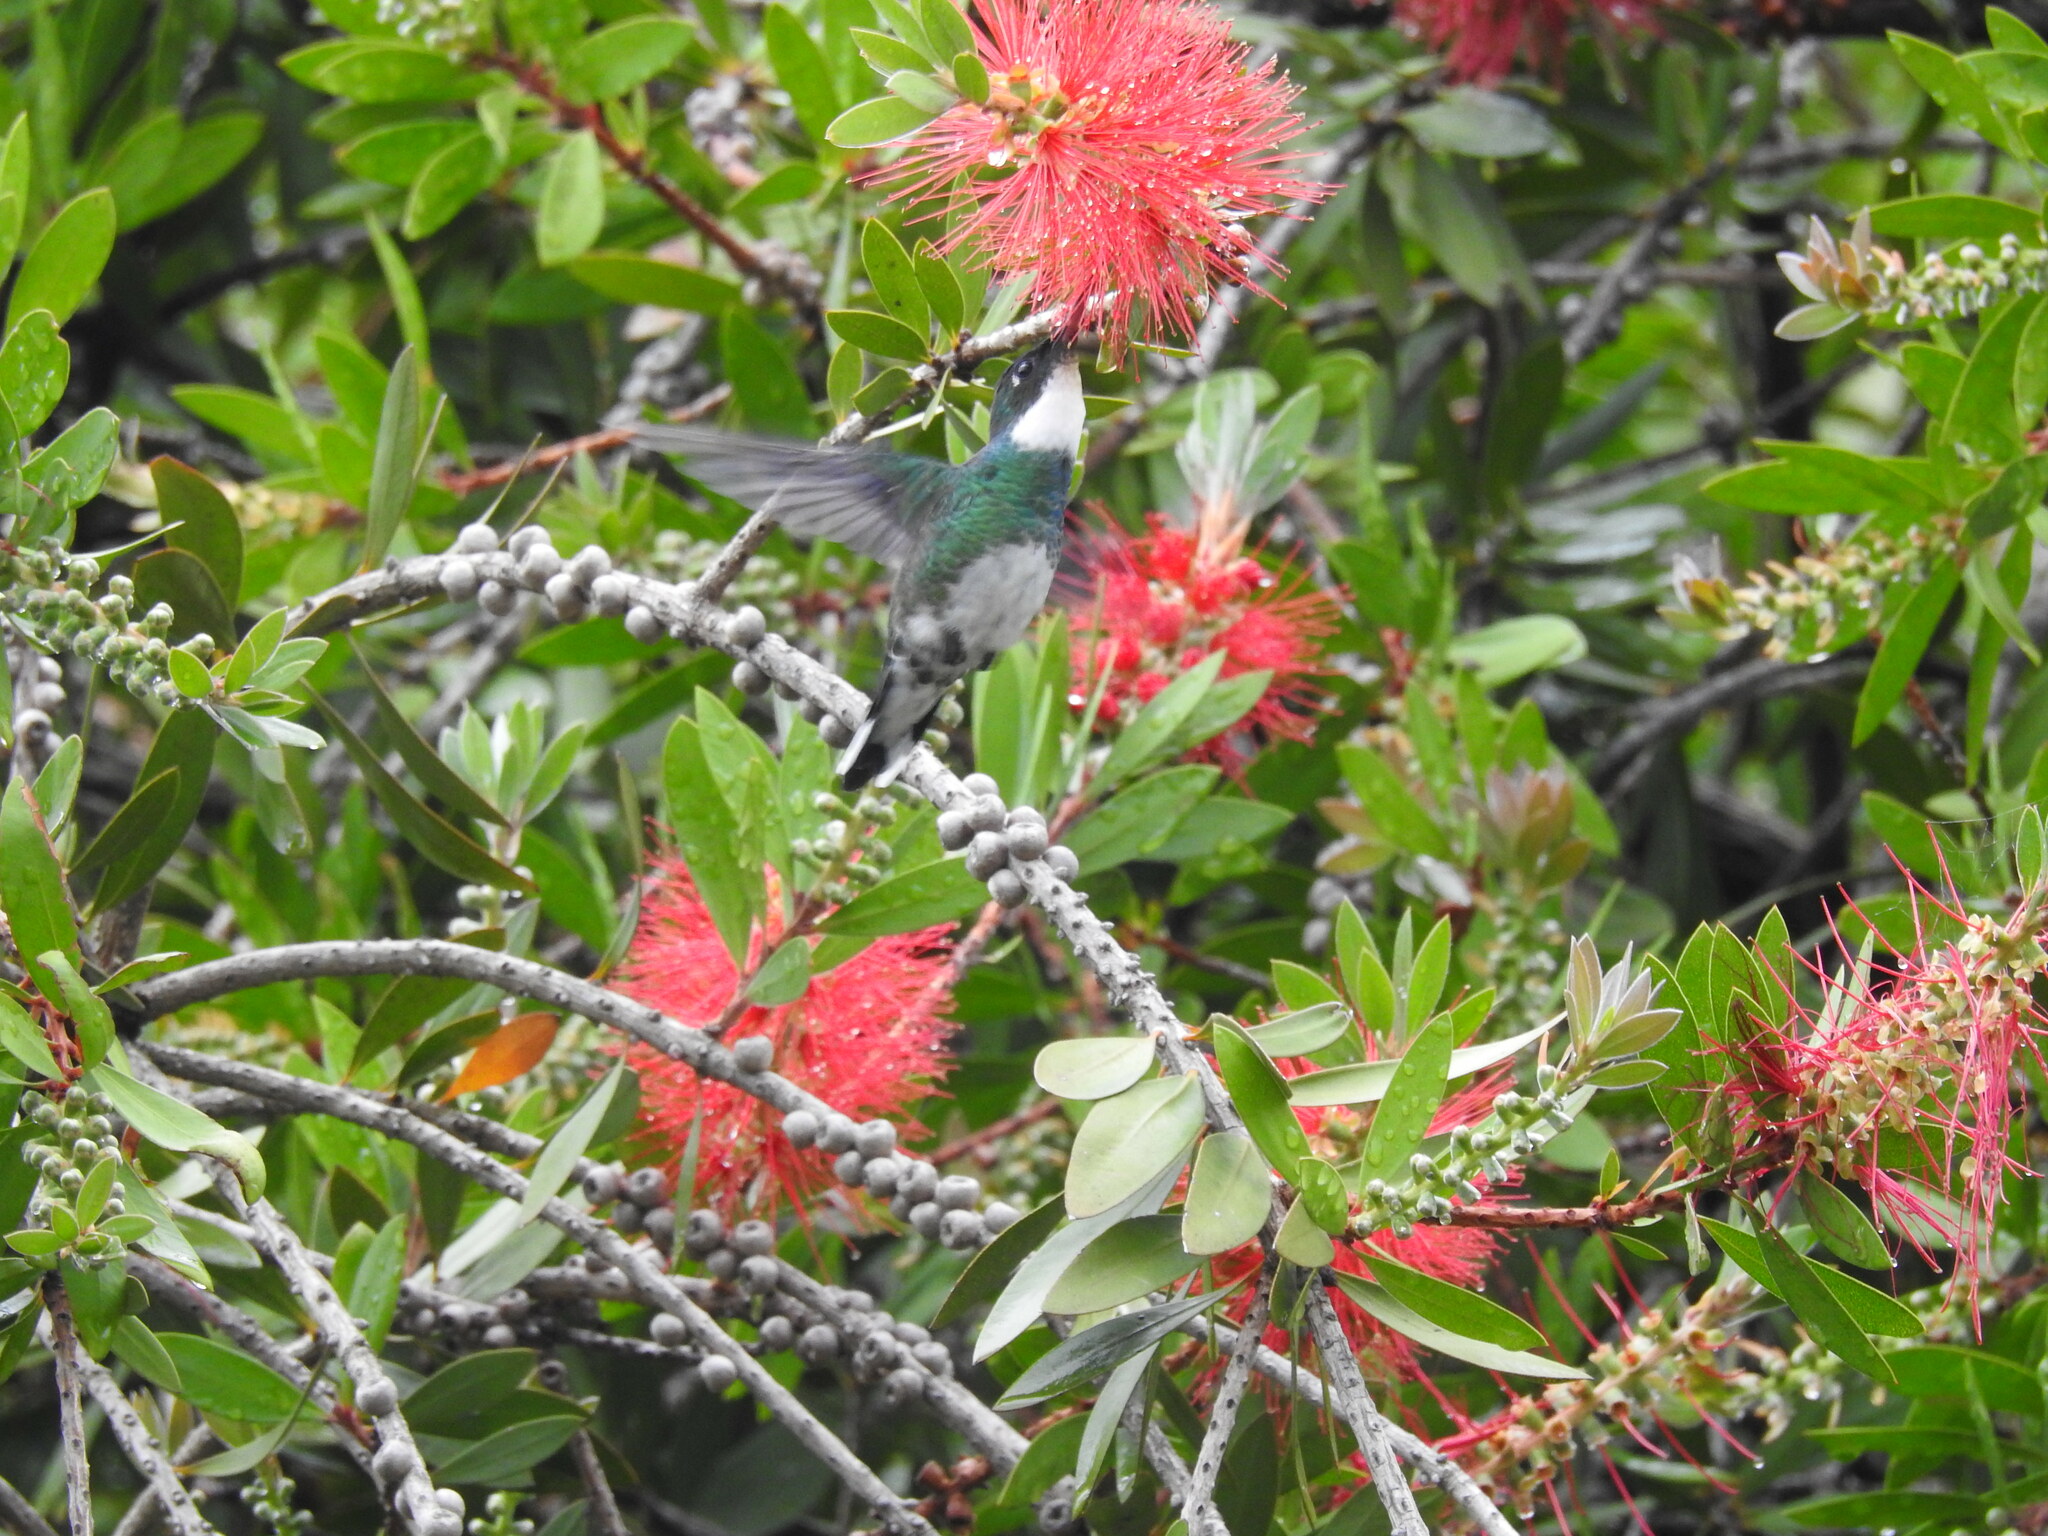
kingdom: Animalia
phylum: Chordata
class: Aves
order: Apodiformes
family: Trochilidae
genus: Leucochloris
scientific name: Leucochloris albicollis
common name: White-throated hummingbird
